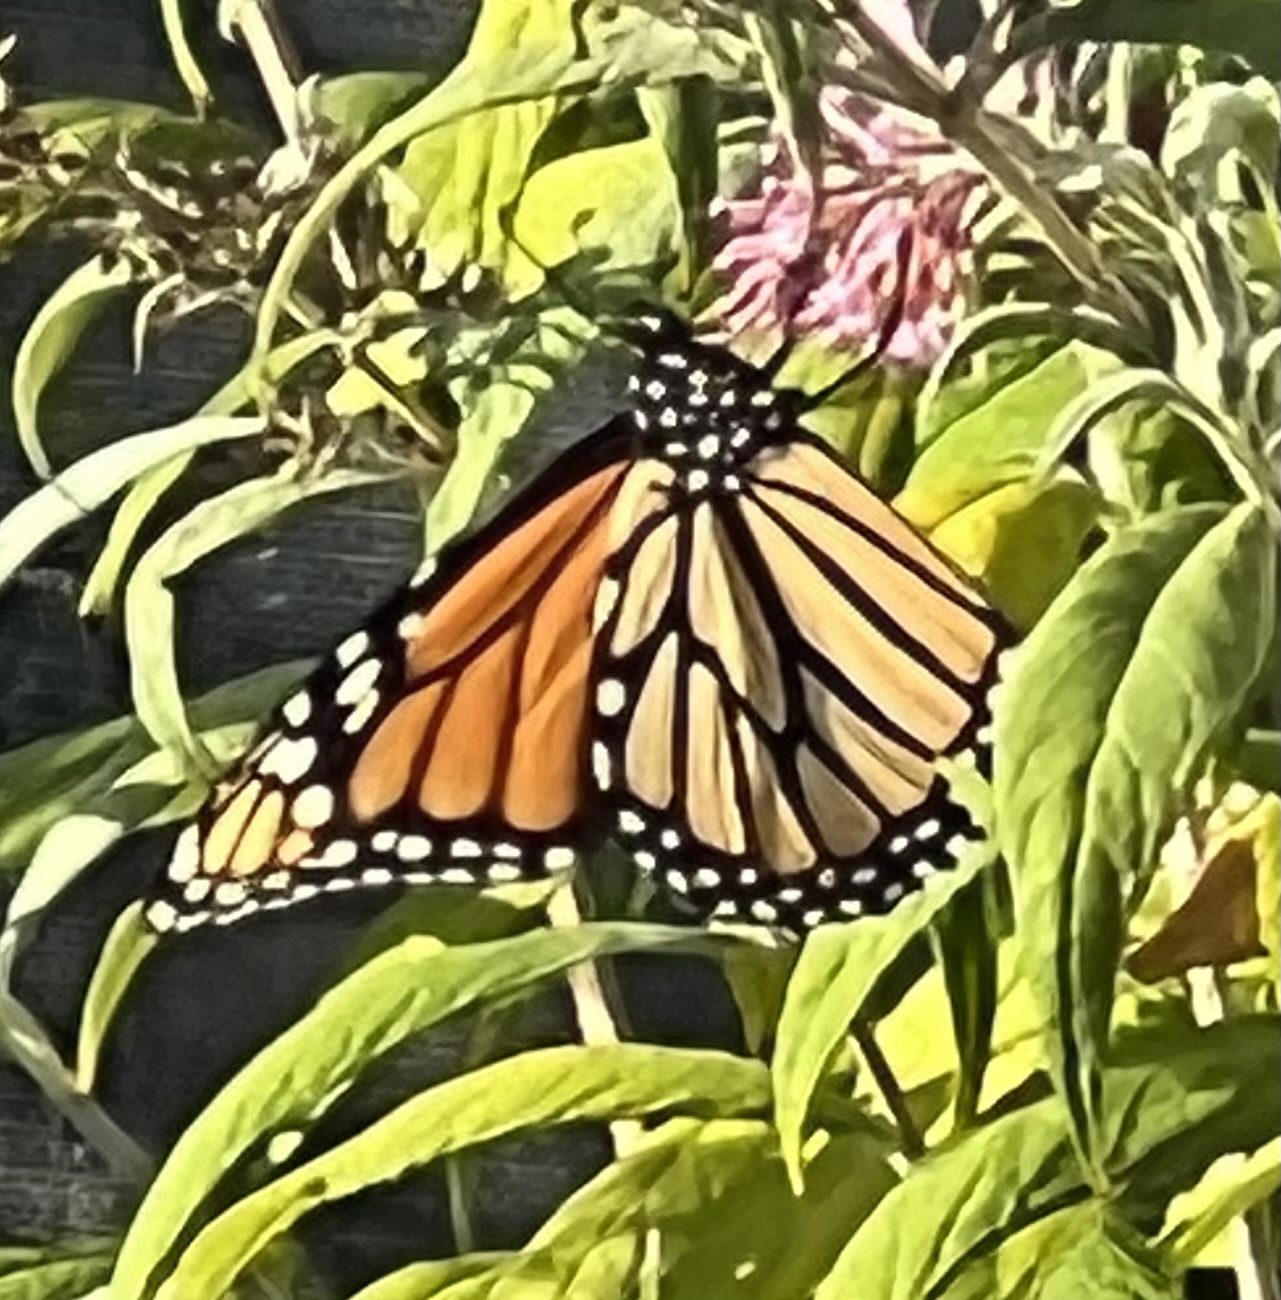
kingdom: Animalia
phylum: Arthropoda
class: Insecta
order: Lepidoptera
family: Nymphalidae
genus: Danaus
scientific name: Danaus plexippus
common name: Monarch
